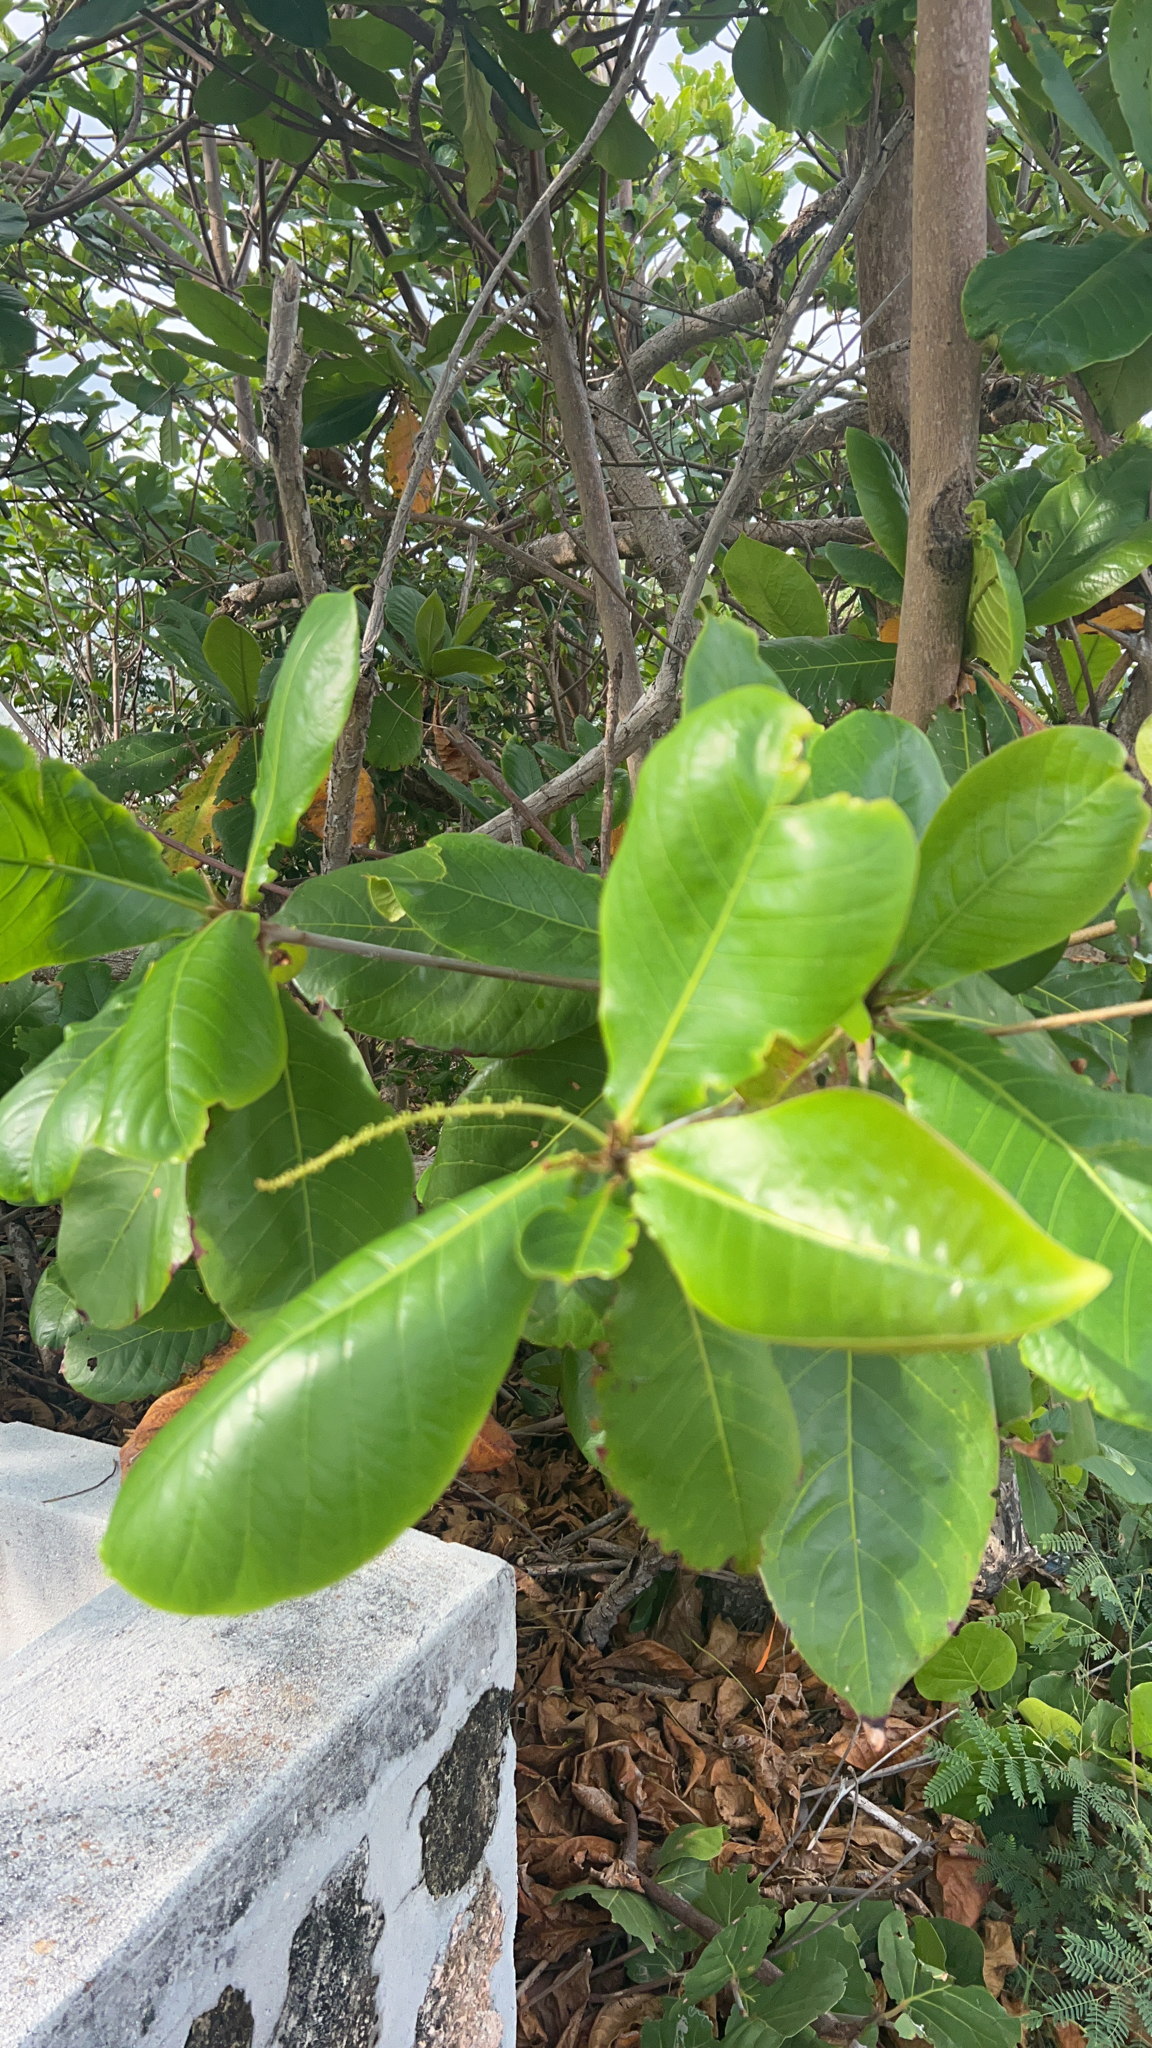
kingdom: Plantae
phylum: Tracheophyta
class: Magnoliopsida
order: Myrtales
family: Combretaceae
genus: Terminalia
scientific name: Terminalia catappa
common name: Tropical almond
